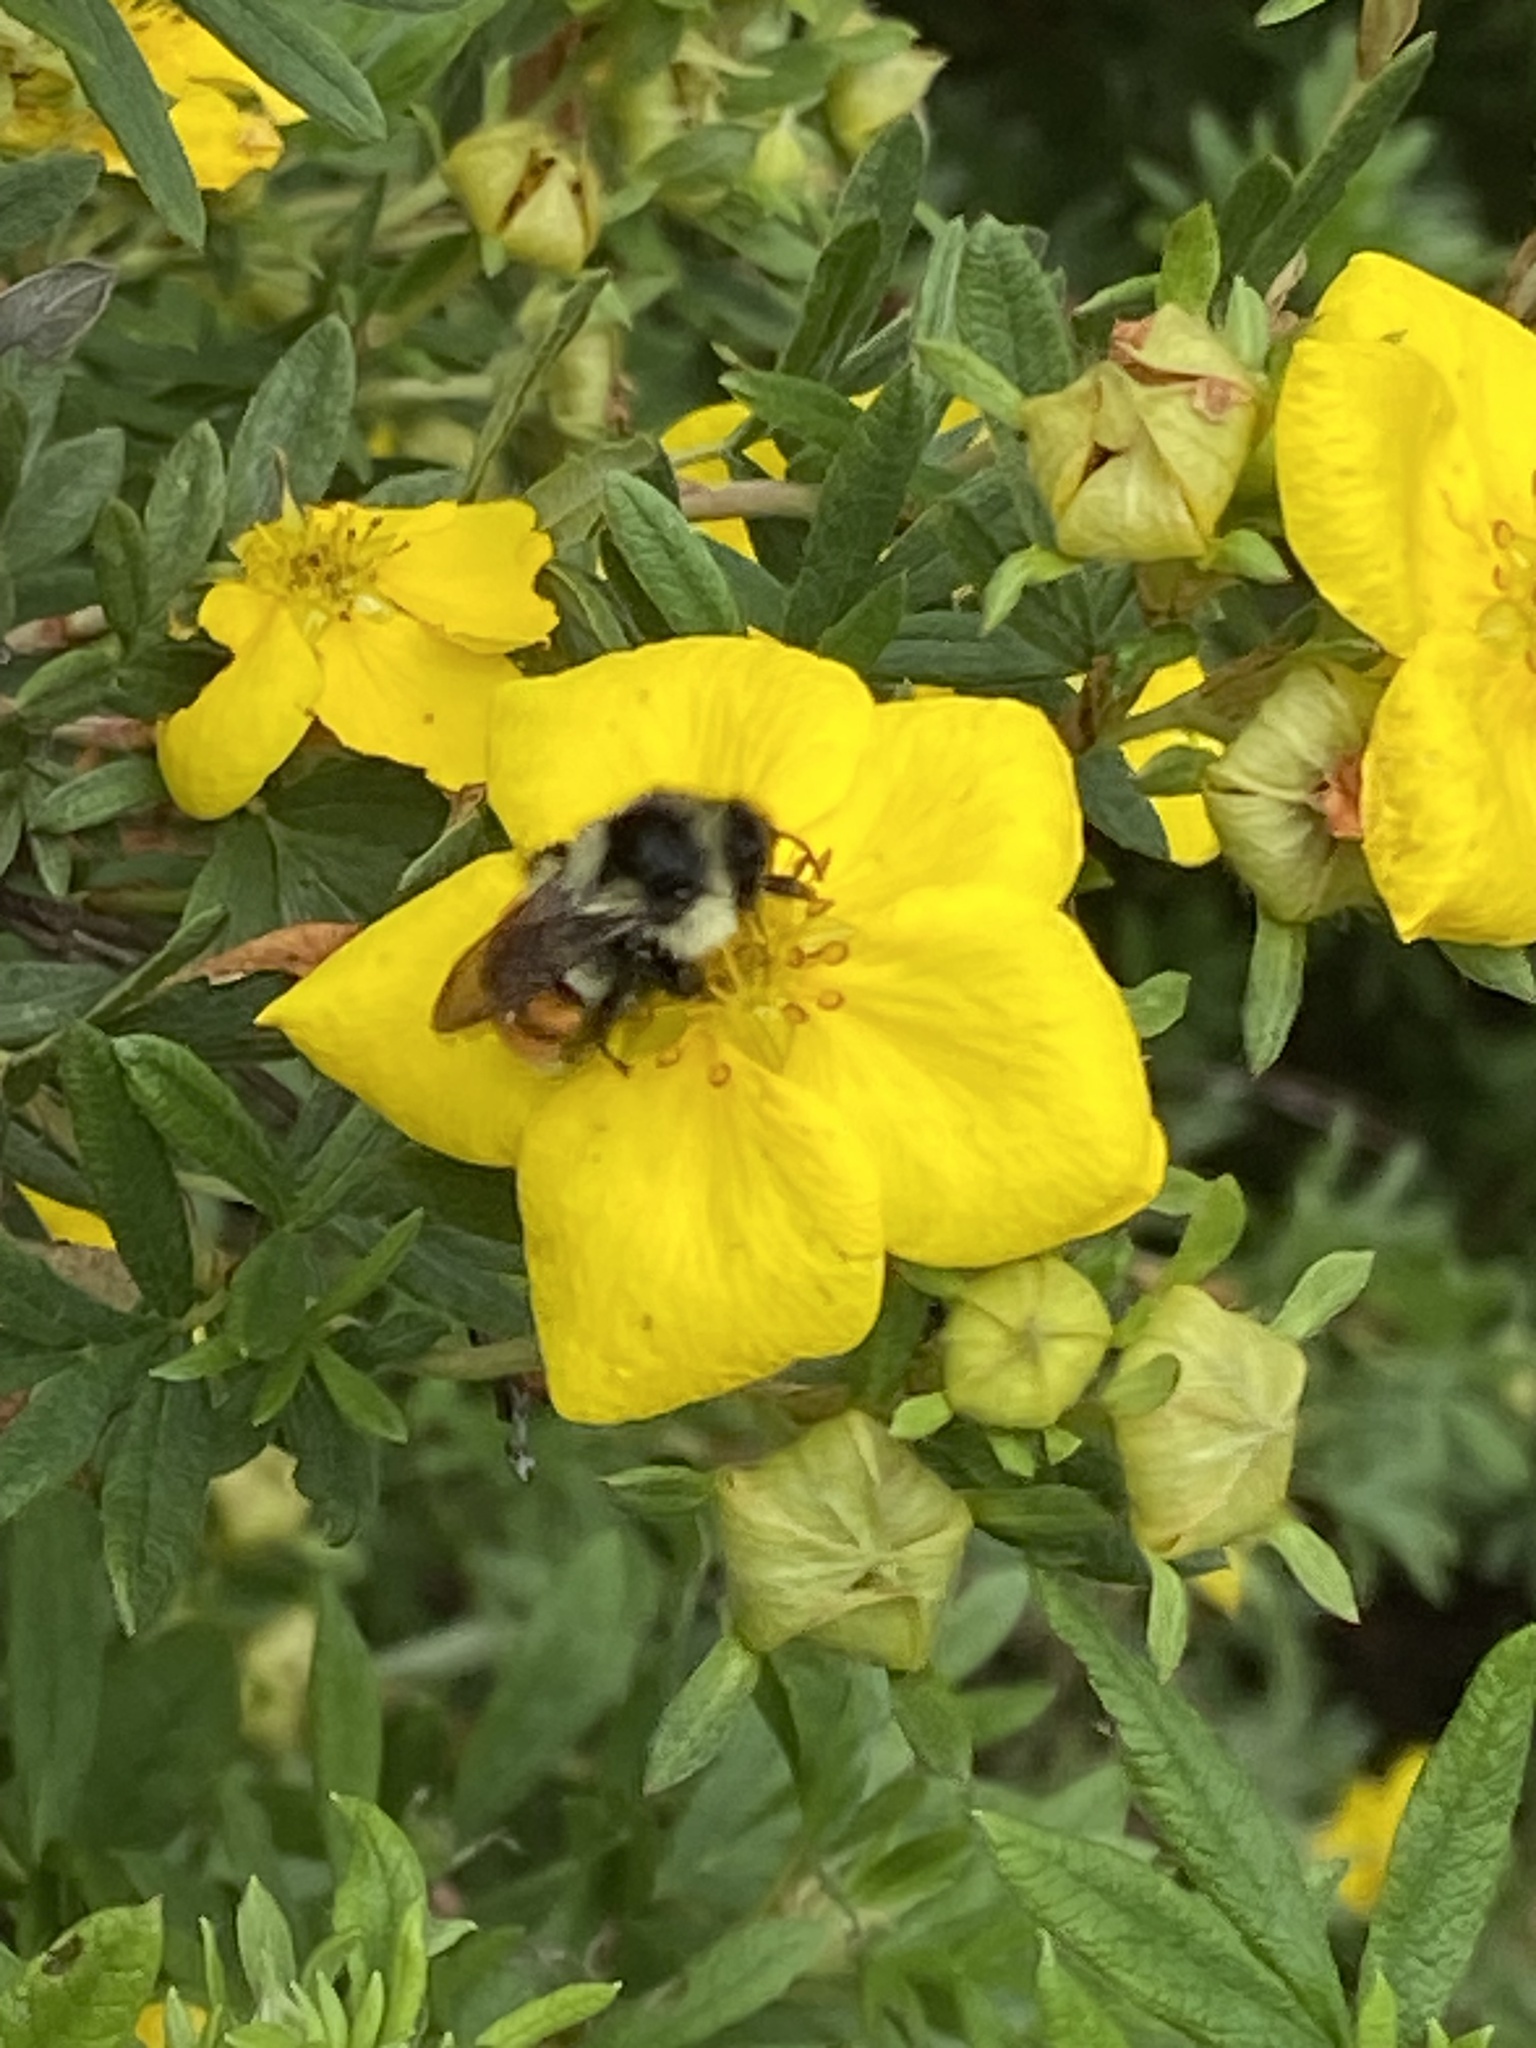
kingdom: Animalia
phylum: Arthropoda
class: Insecta
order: Hymenoptera
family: Apidae
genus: Bombus
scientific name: Bombus ternarius
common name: Tri-colored bumble bee
